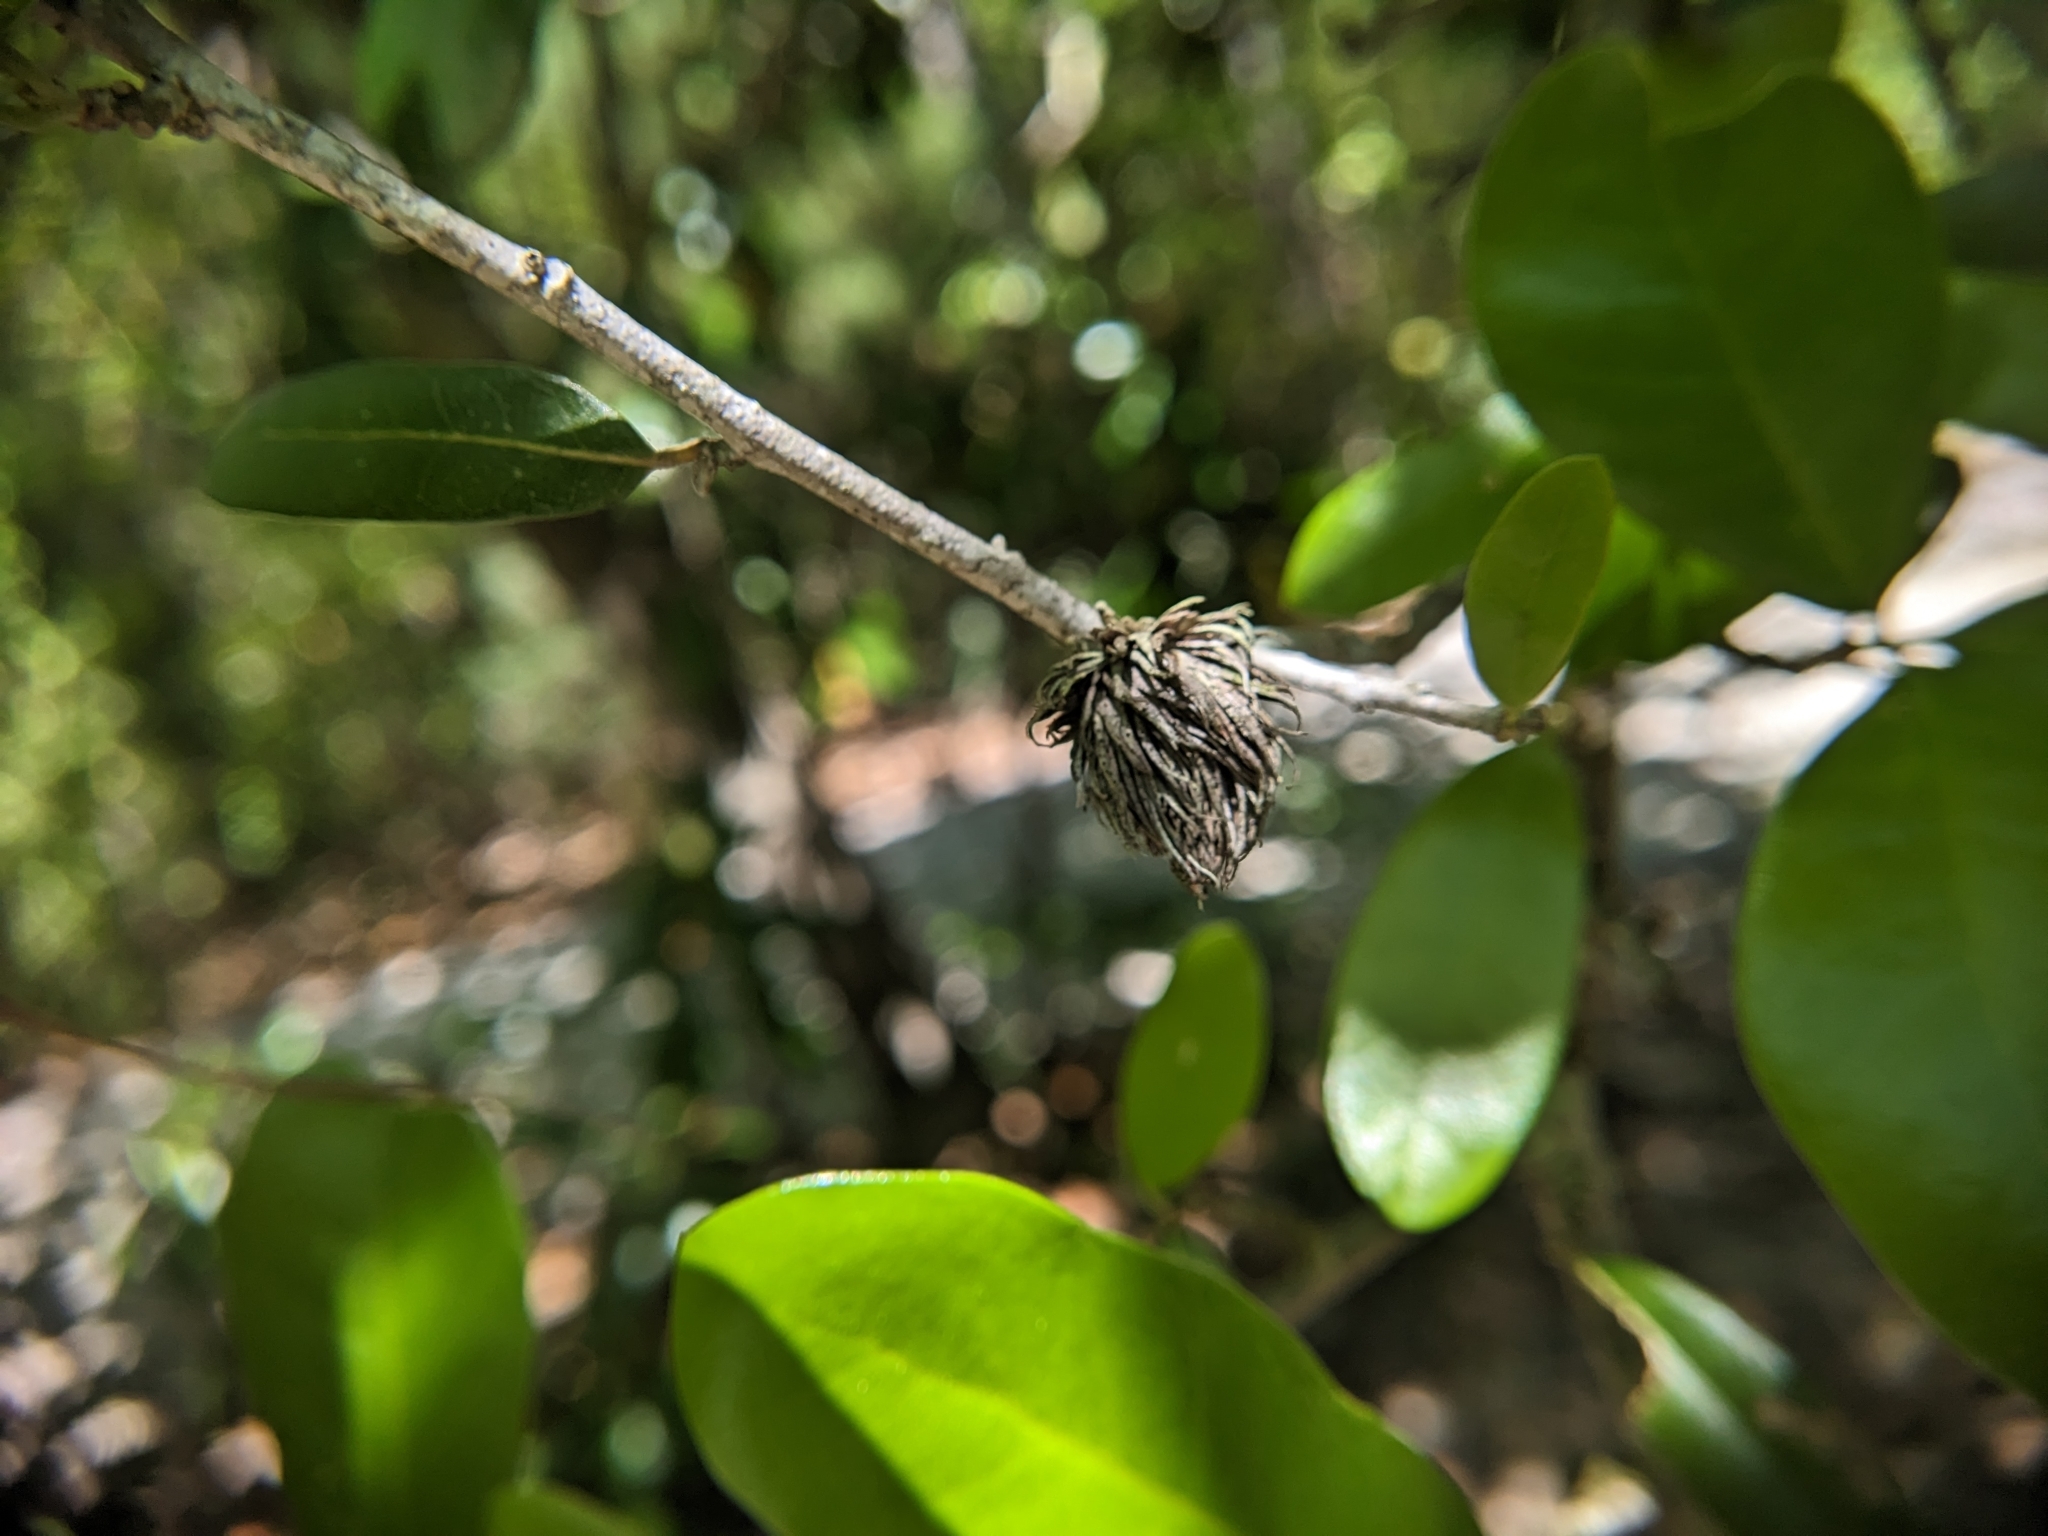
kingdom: Animalia
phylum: Arthropoda
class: Insecta
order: Hymenoptera
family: Cynipidae
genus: Andricus
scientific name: Andricus quercusfoliatus
